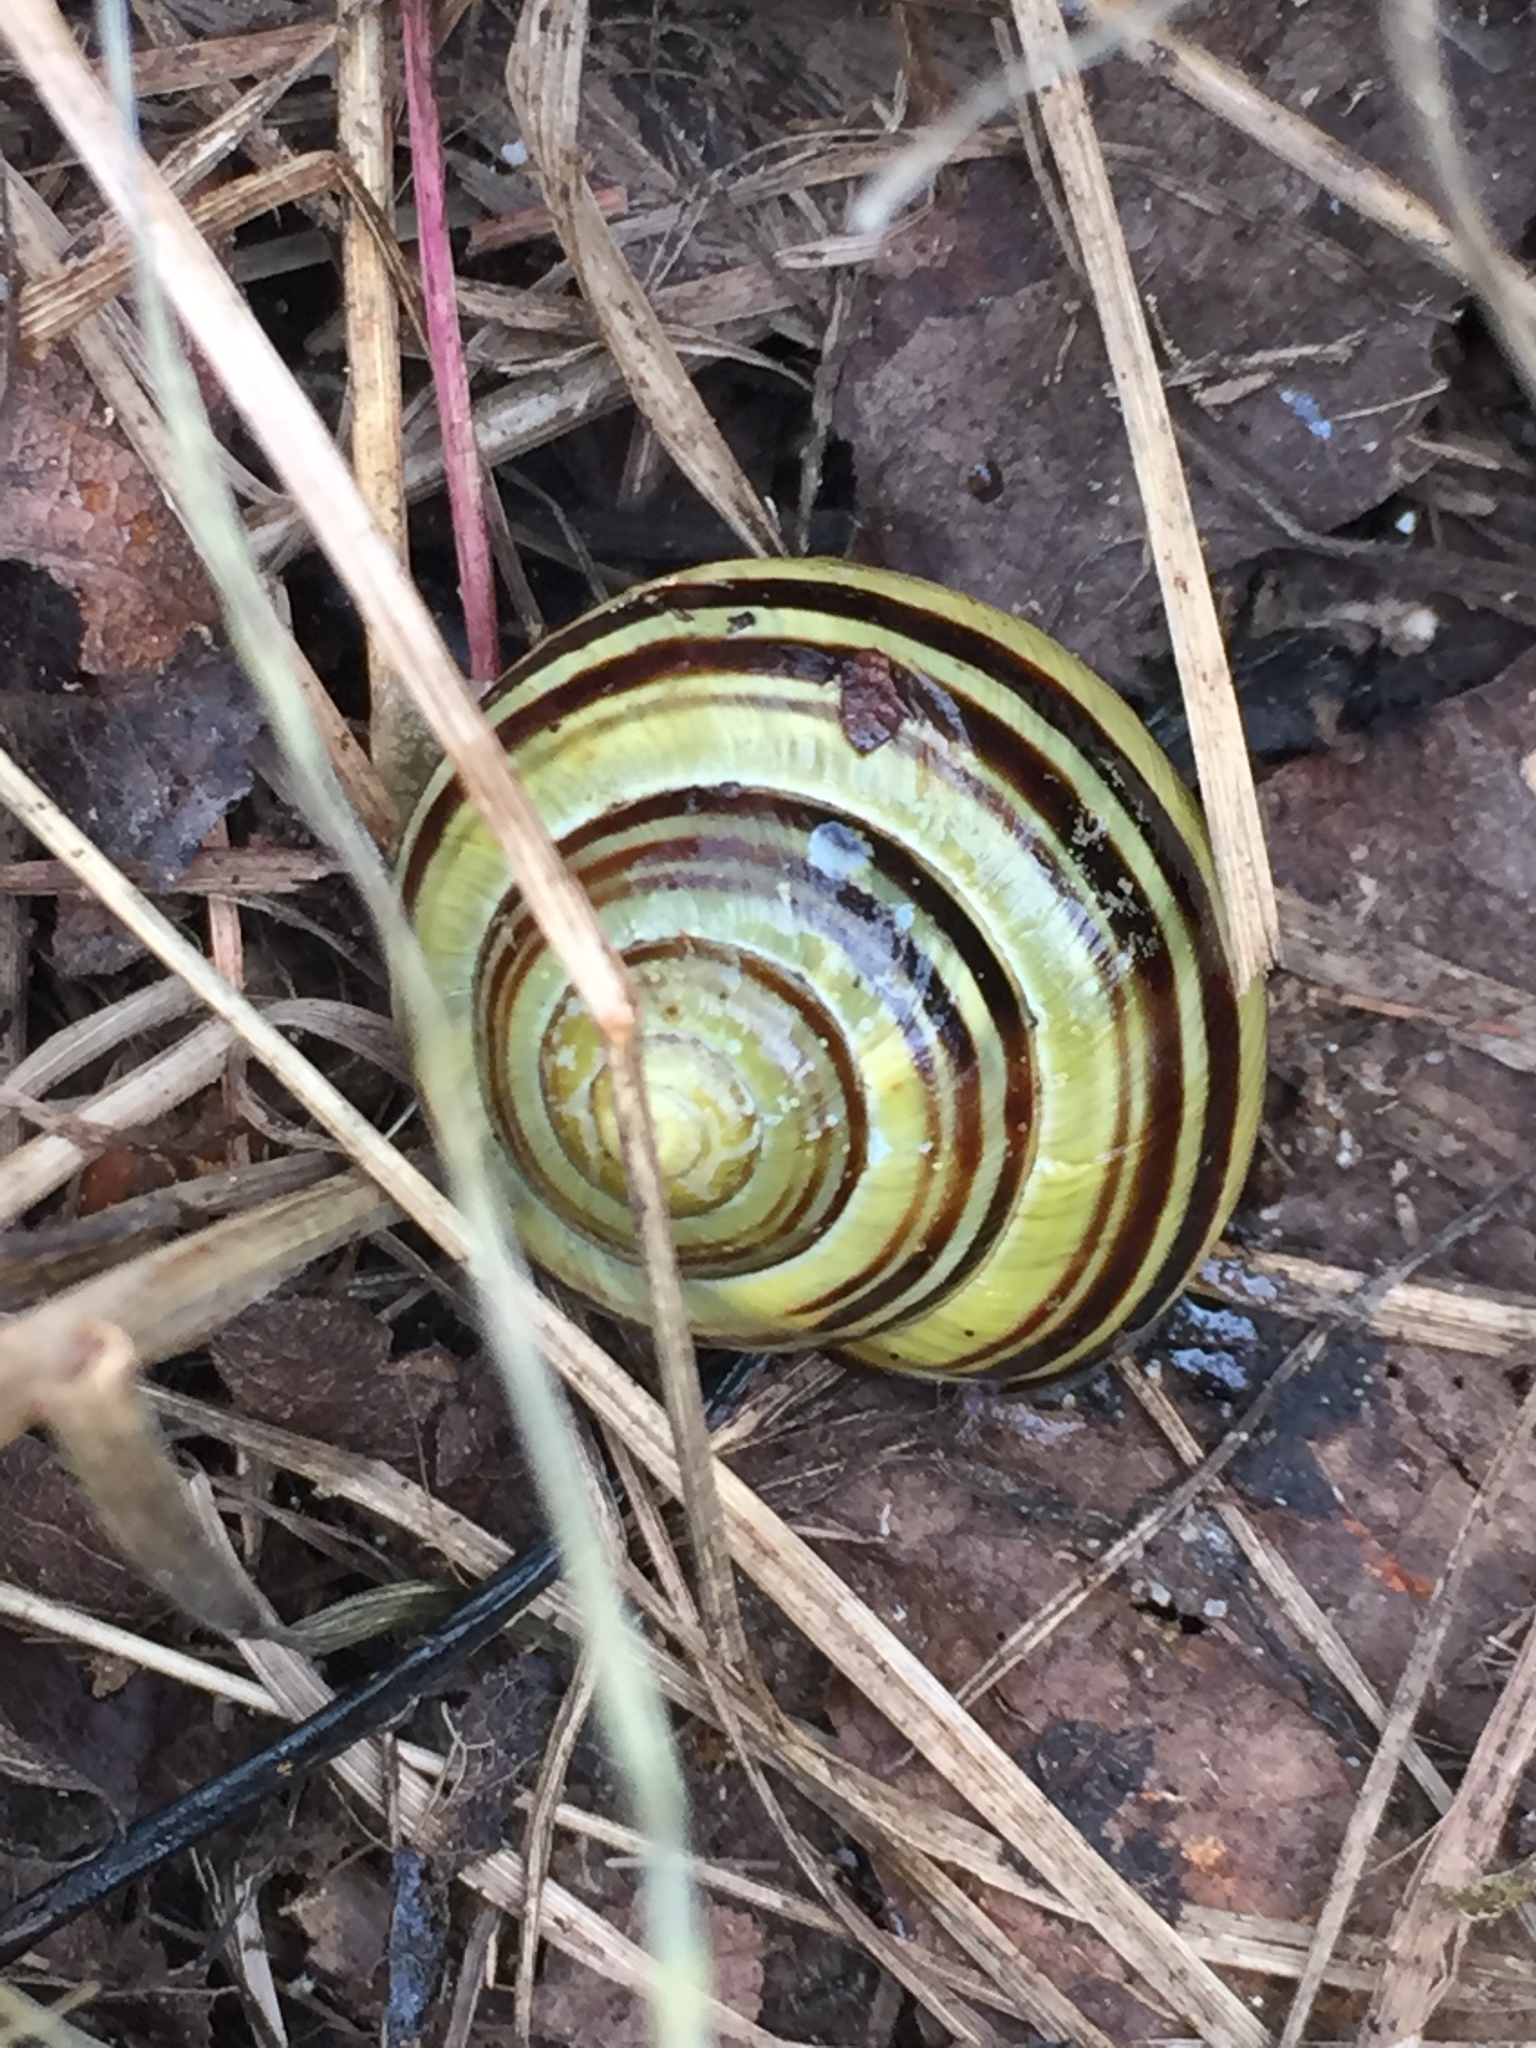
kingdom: Animalia
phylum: Mollusca
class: Gastropoda
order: Stylommatophora
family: Helicidae
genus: Cepaea
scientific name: Cepaea nemoralis
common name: Grovesnail
